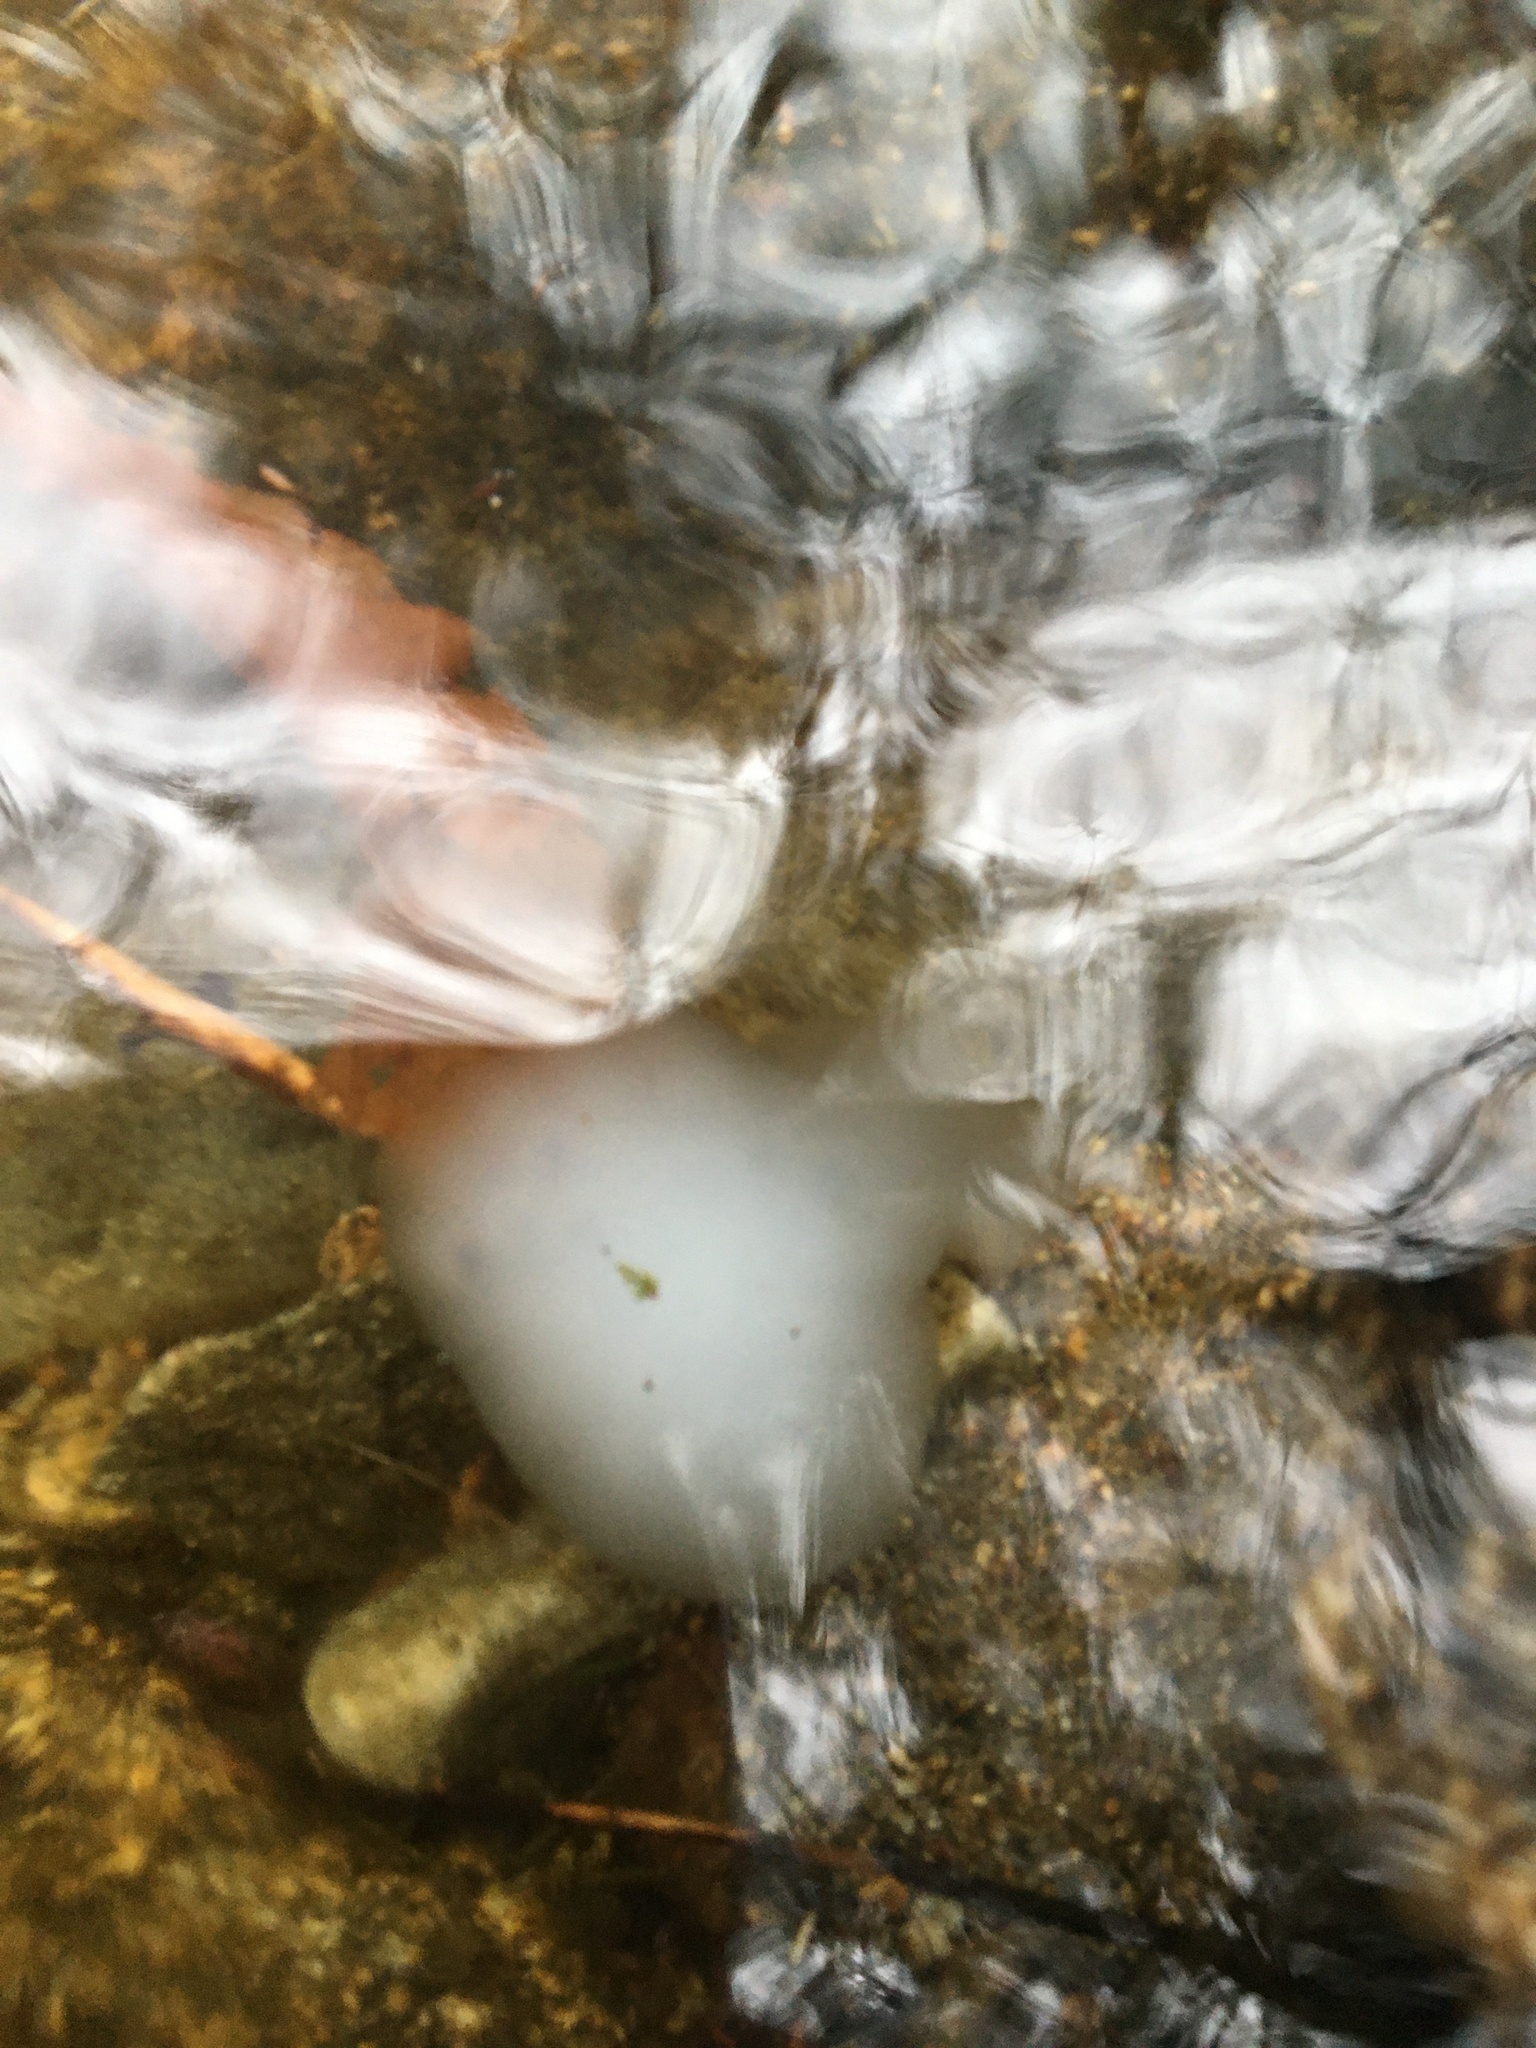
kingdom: Animalia
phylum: Chordata
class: Amphibia
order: Caudata
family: Ambystomatidae
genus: Ambystoma
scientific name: Ambystoma maculatum
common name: Spotted salamander
